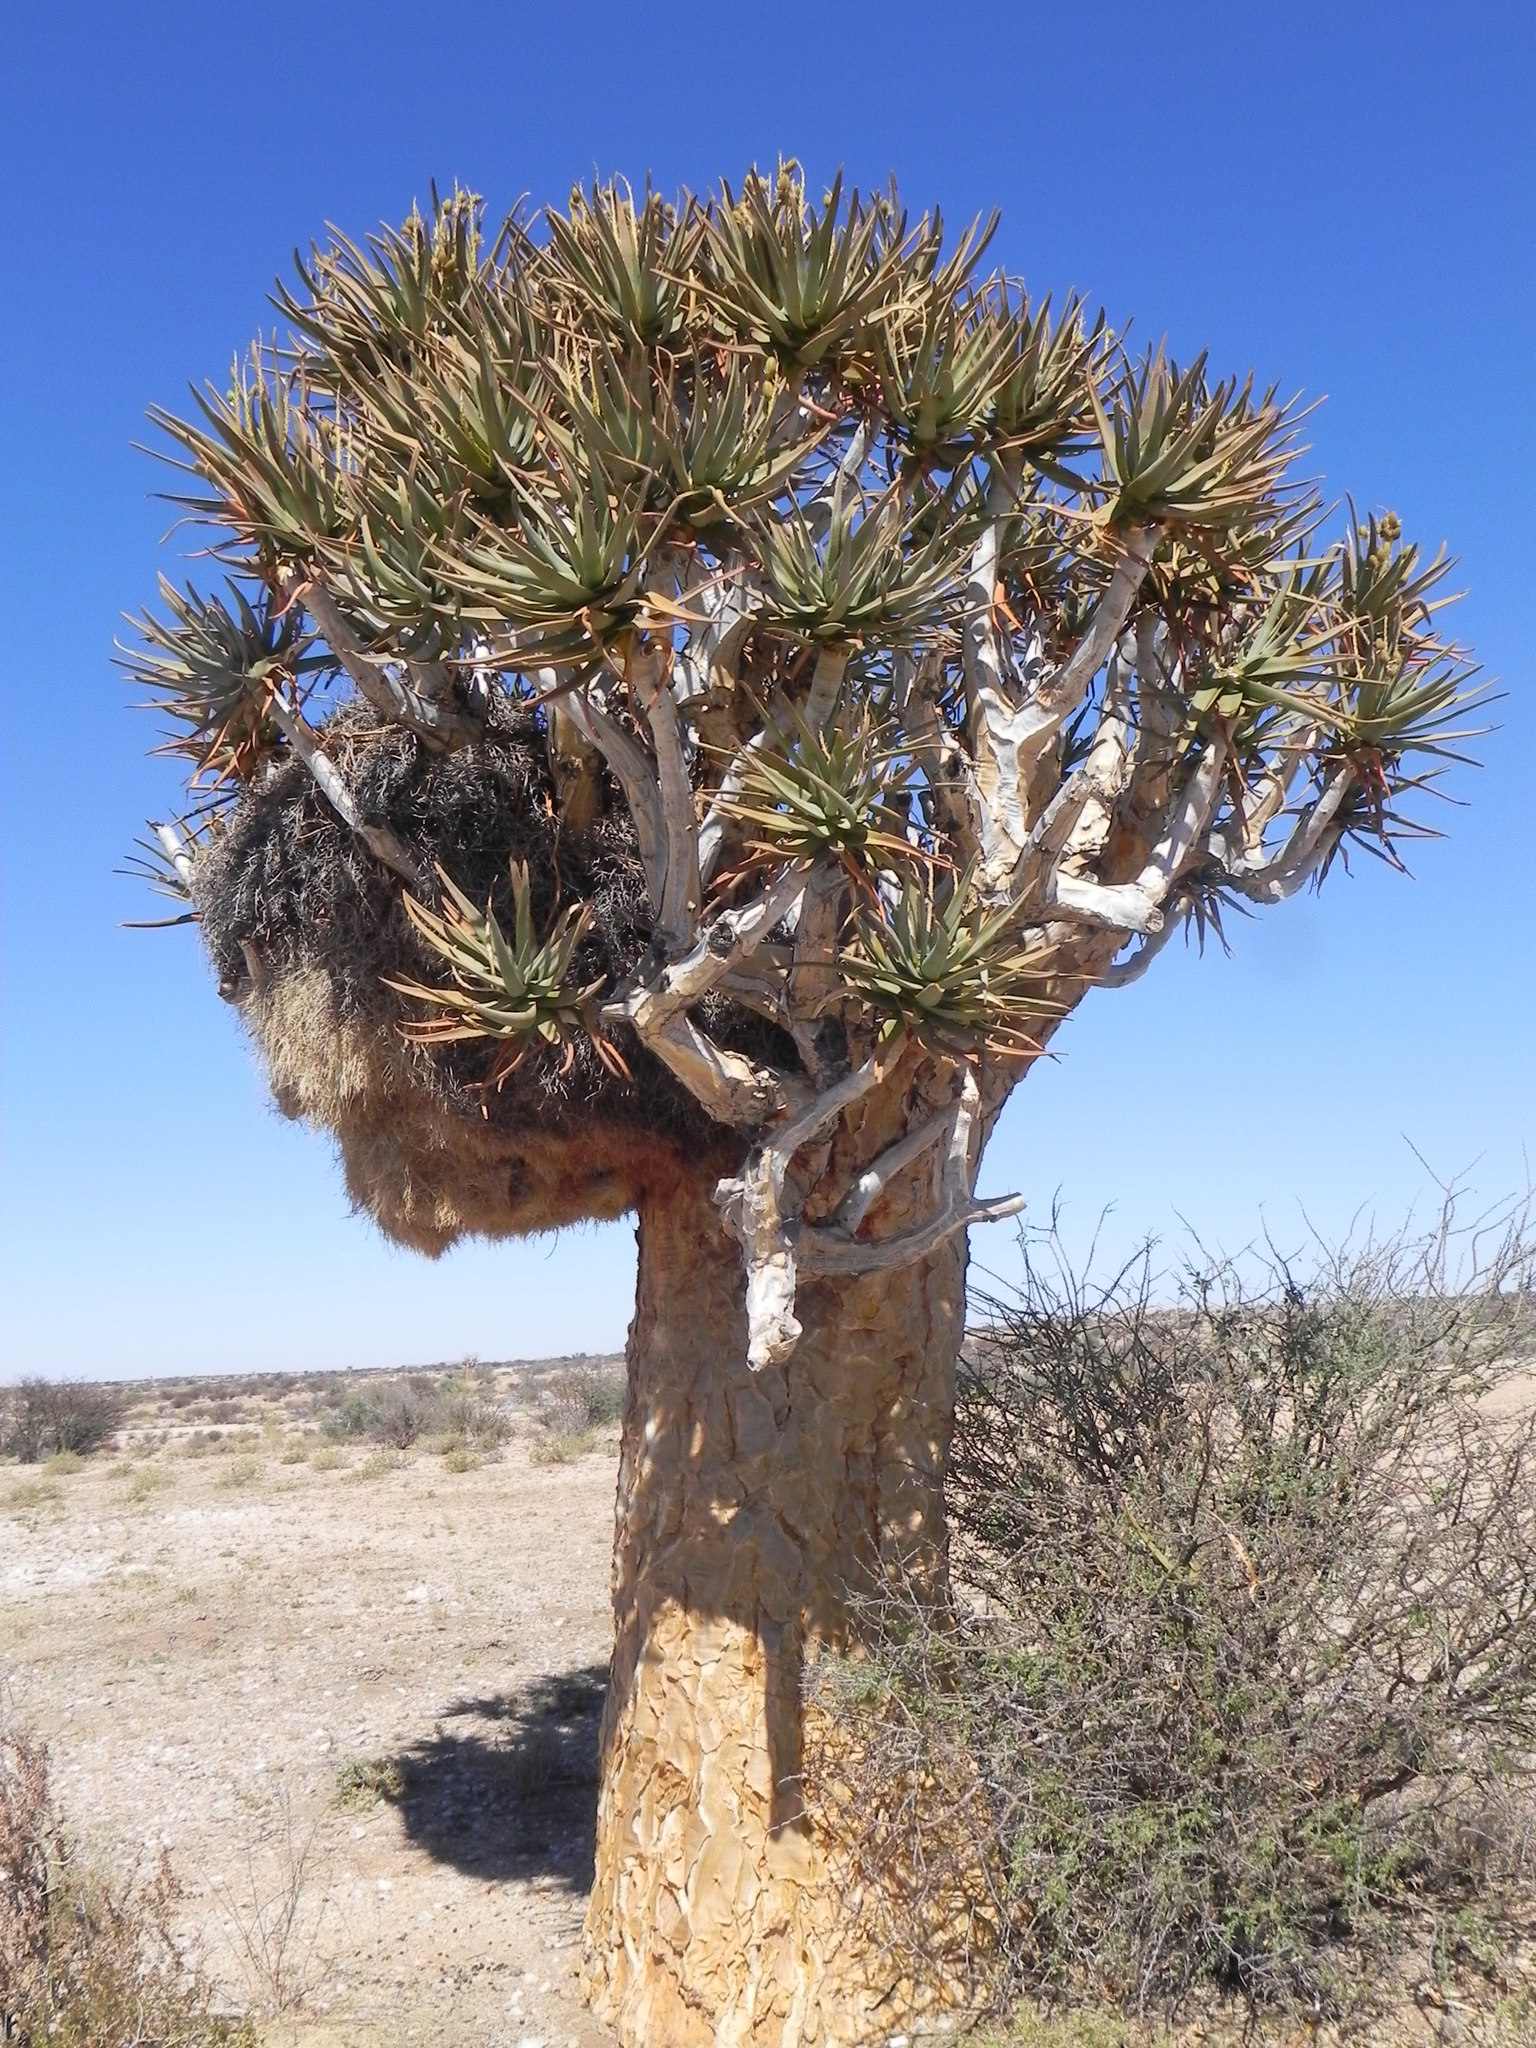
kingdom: Plantae
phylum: Tracheophyta
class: Liliopsida
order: Asparagales
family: Asphodelaceae
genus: Aloidendron
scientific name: Aloidendron dichotomum
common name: Quiver tree
